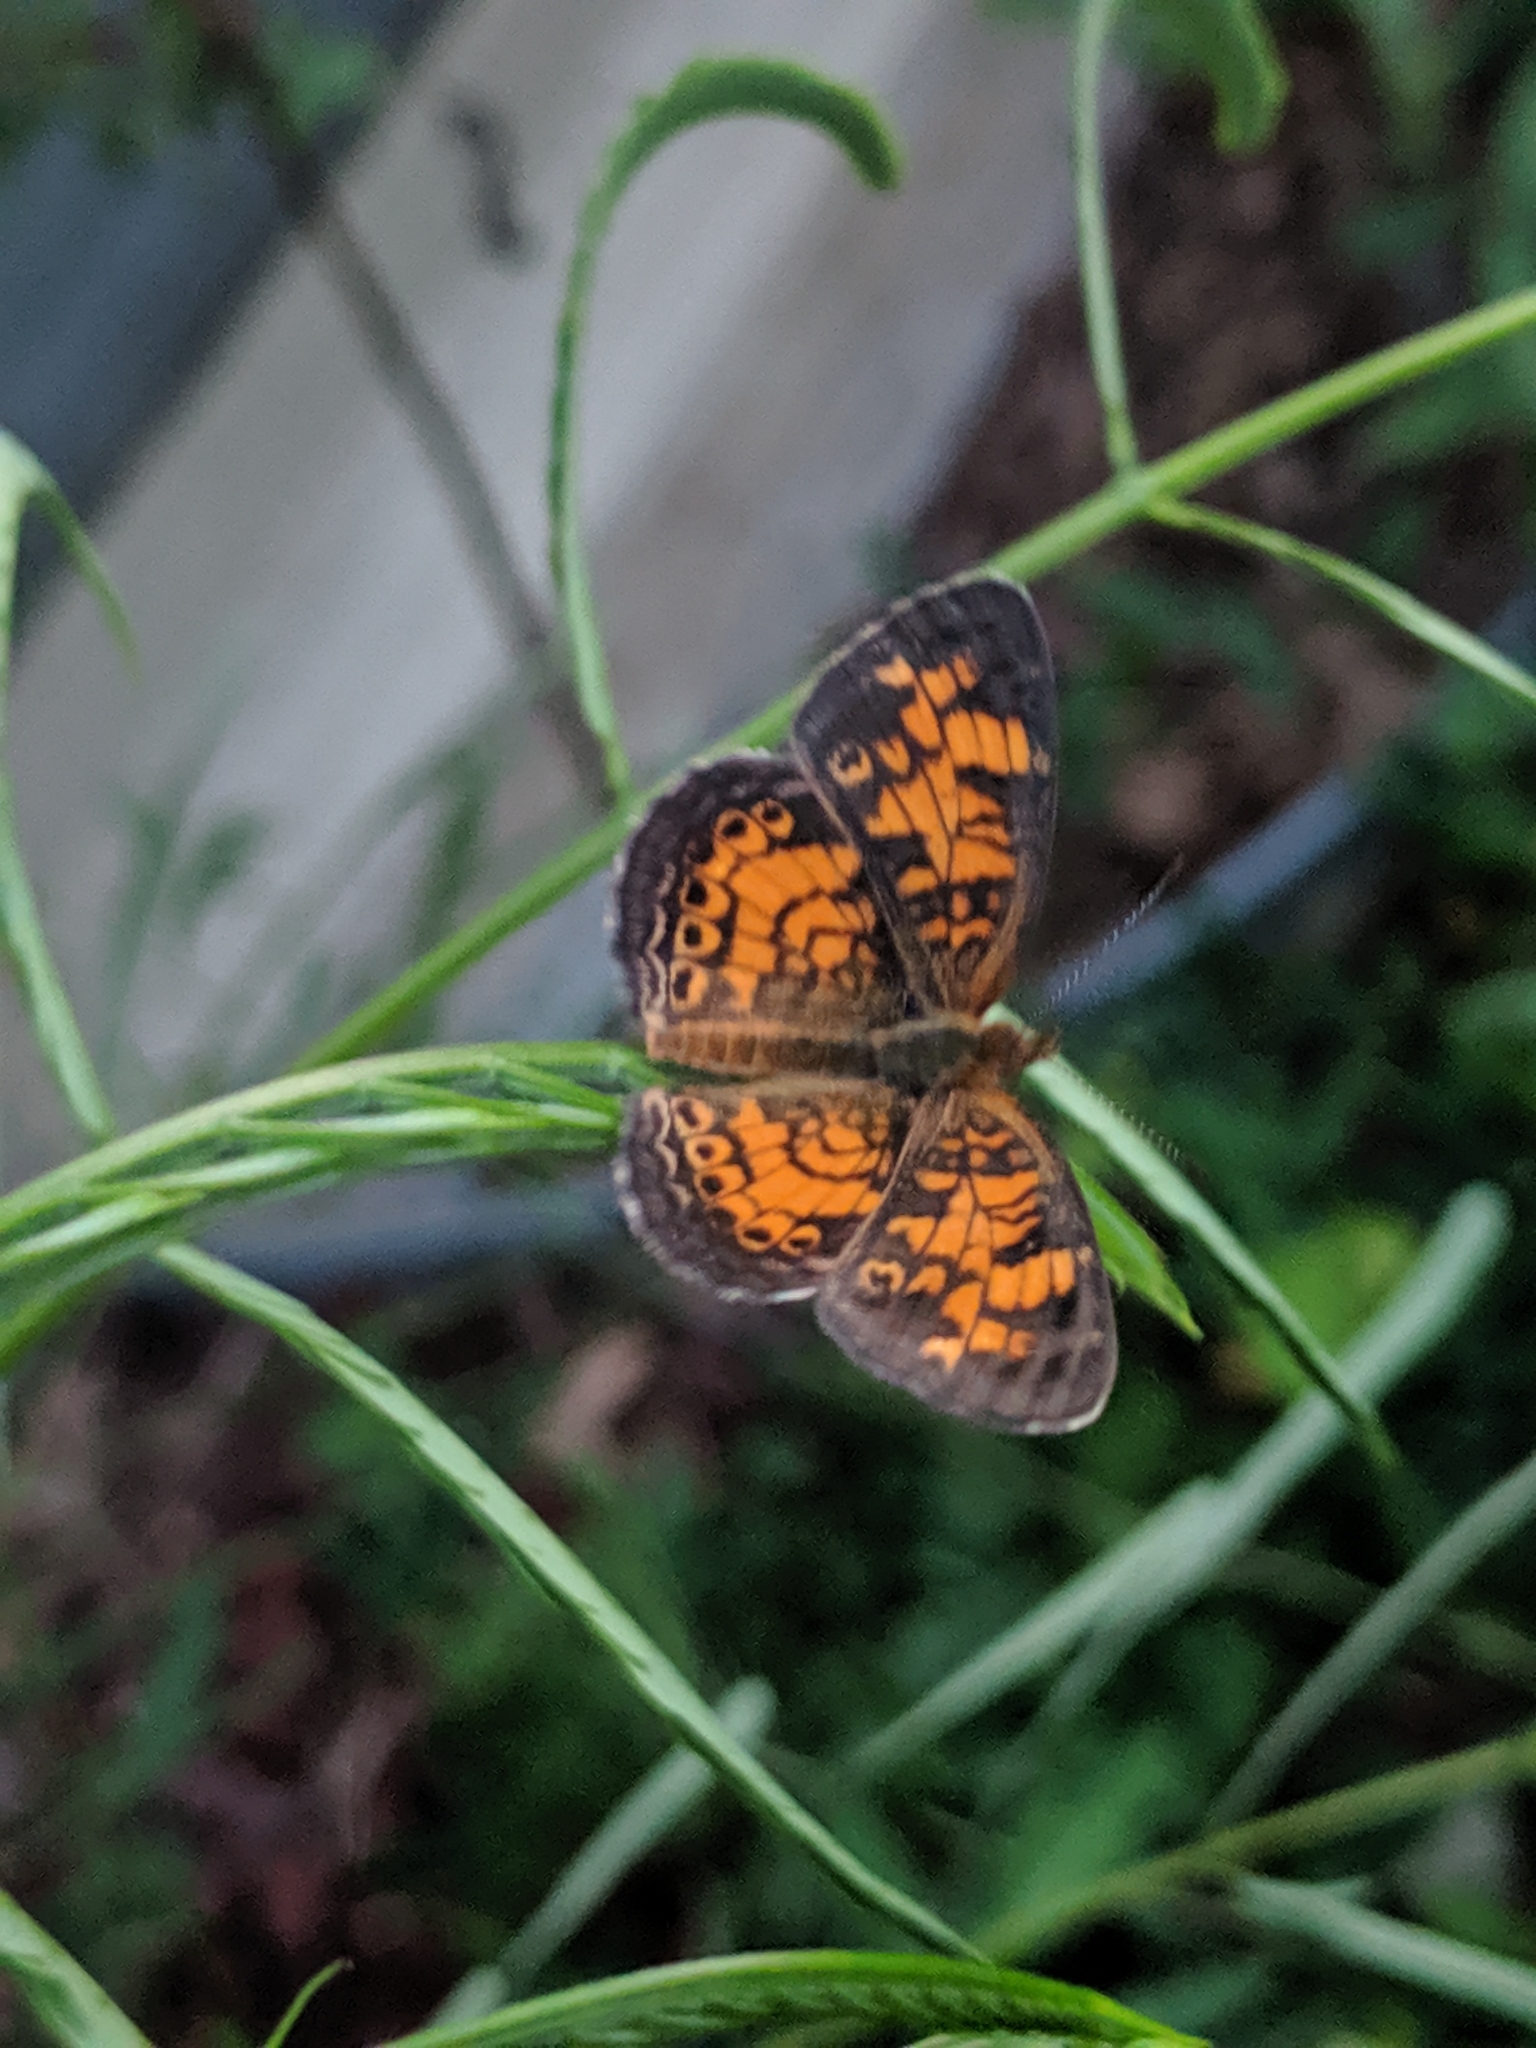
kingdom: Animalia
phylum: Arthropoda
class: Insecta
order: Lepidoptera
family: Nymphalidae
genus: Phyciodes
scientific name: Phyciodes tharos
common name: Pearl crescent
